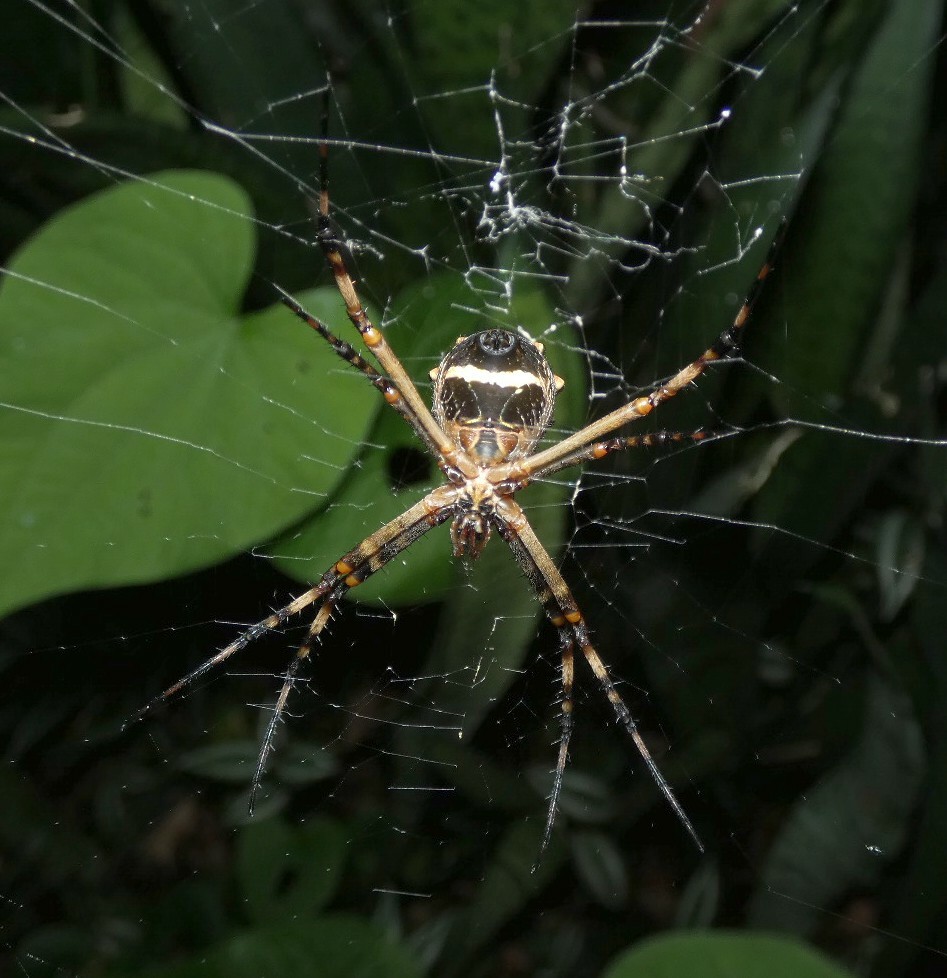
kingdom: Animalia
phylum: Arthropoda
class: Arachnida
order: Araneae
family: Araneidae
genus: Argiope
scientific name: Argiope argentata
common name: Orb weavers
